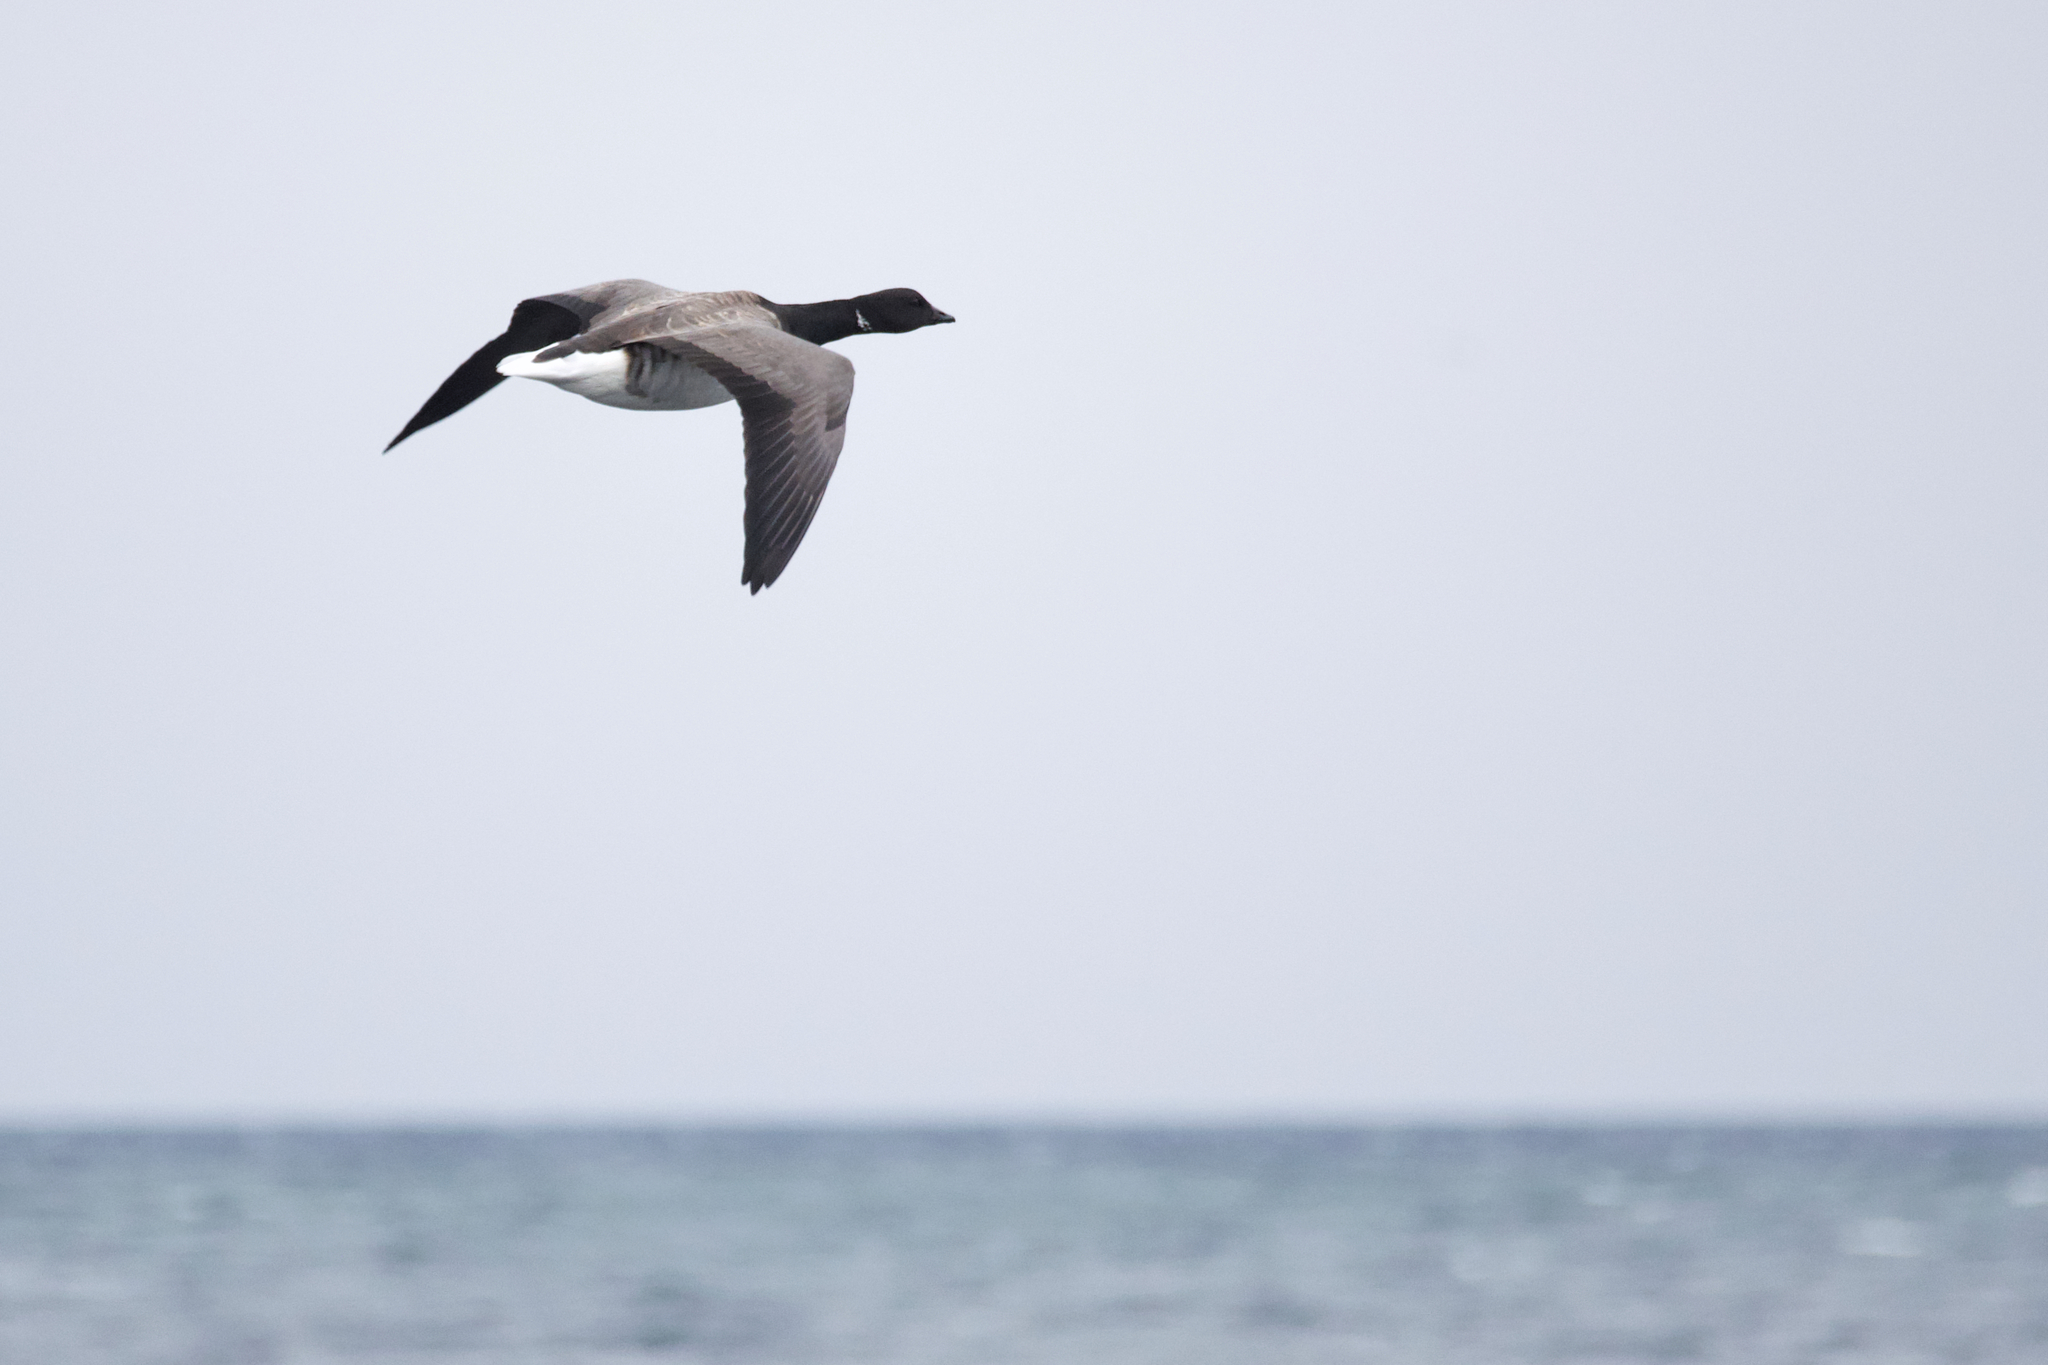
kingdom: Animalia
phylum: Chordata
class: Aves
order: Anseriformes
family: Anatidae
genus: Branta
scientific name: Branta bernicla
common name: Brant goose
